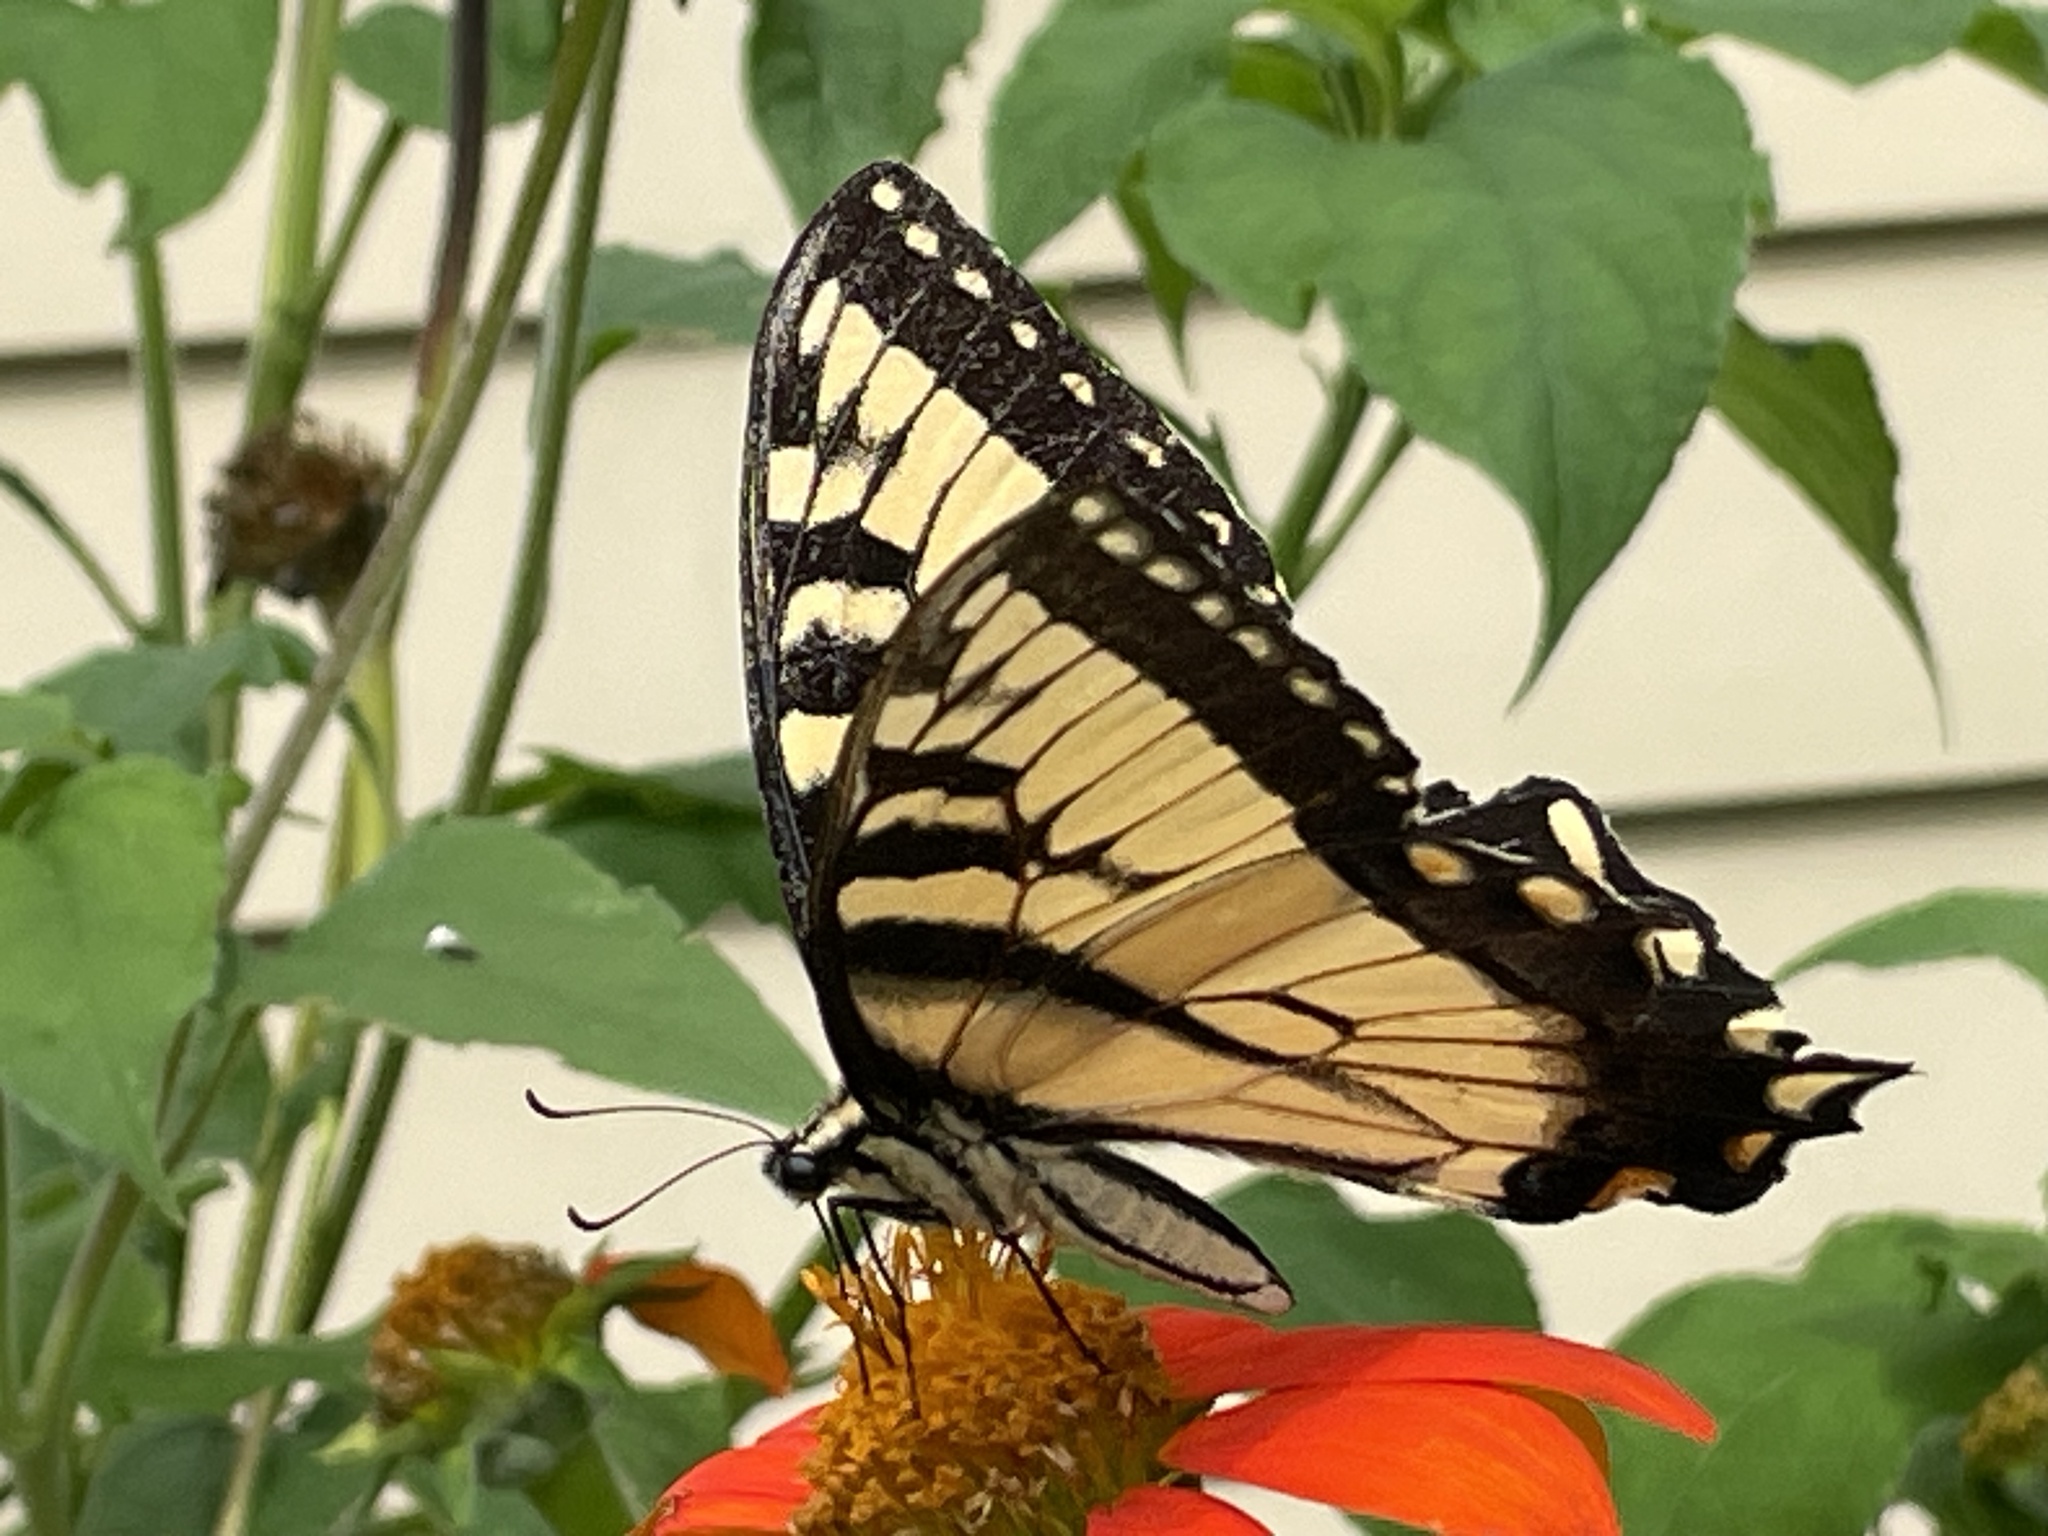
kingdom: Animalia
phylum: Arthropoda
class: Insecta
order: Lepidoptera
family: Papilionidae
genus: Papilio
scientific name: Papilio glaucus
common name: Tiger swallowtail
